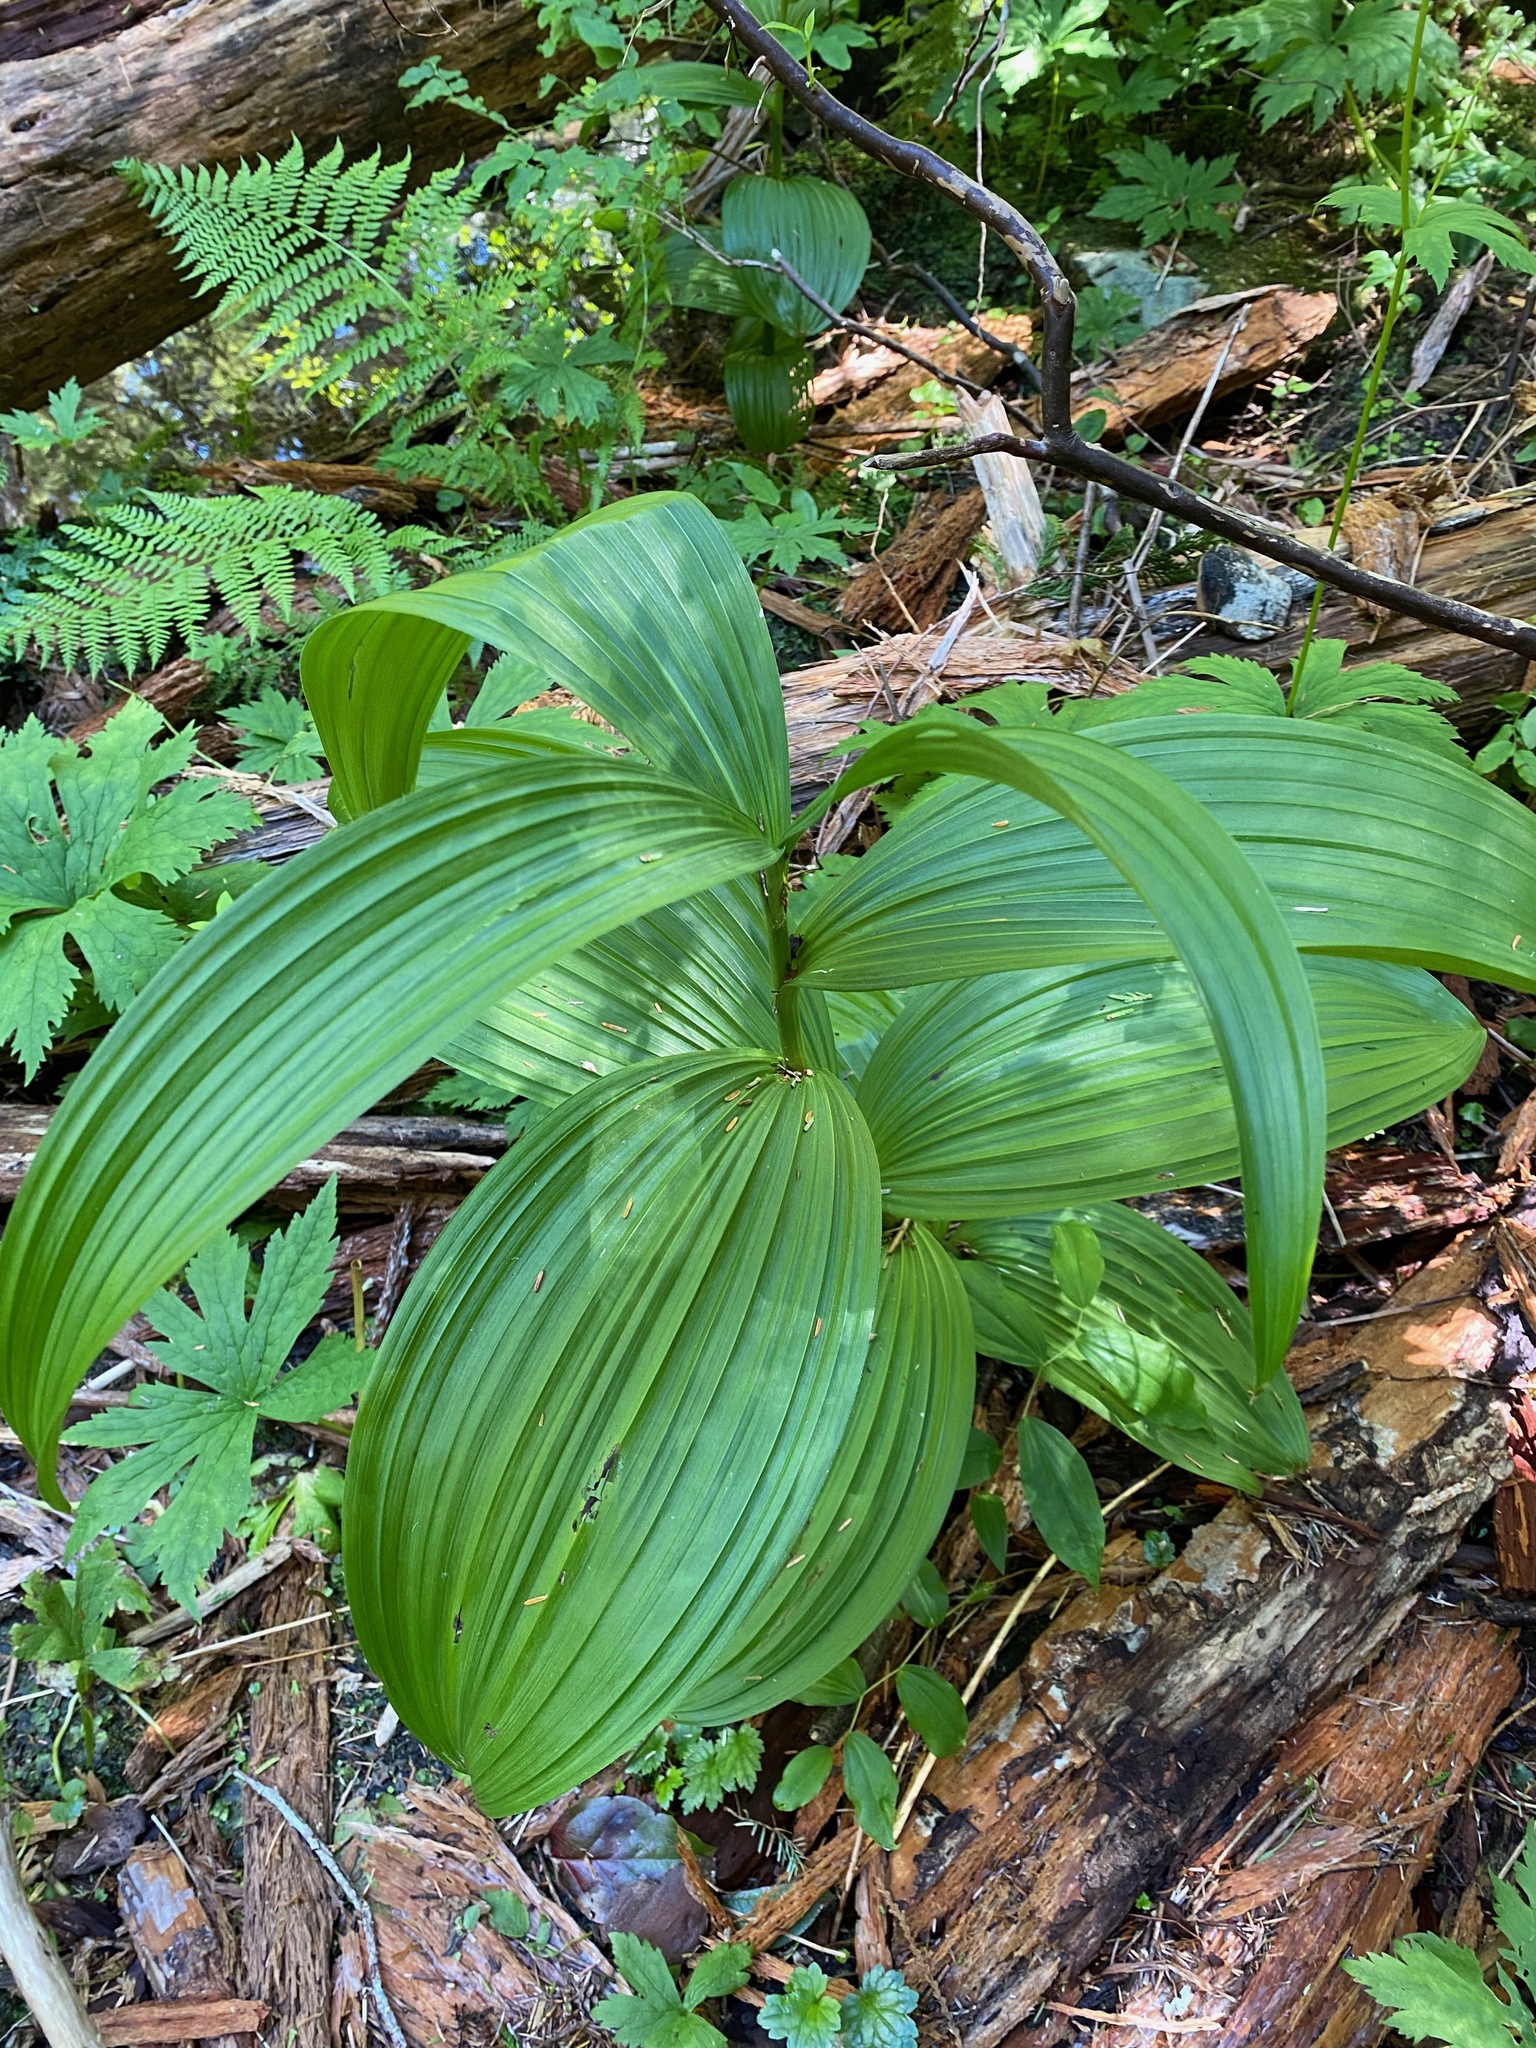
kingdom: Plantae
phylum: Tracheophyta
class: Liliopsida
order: Liliales
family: Melanthiaceae
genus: Veratrum
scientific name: Veratrum viride
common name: American false hellebore
